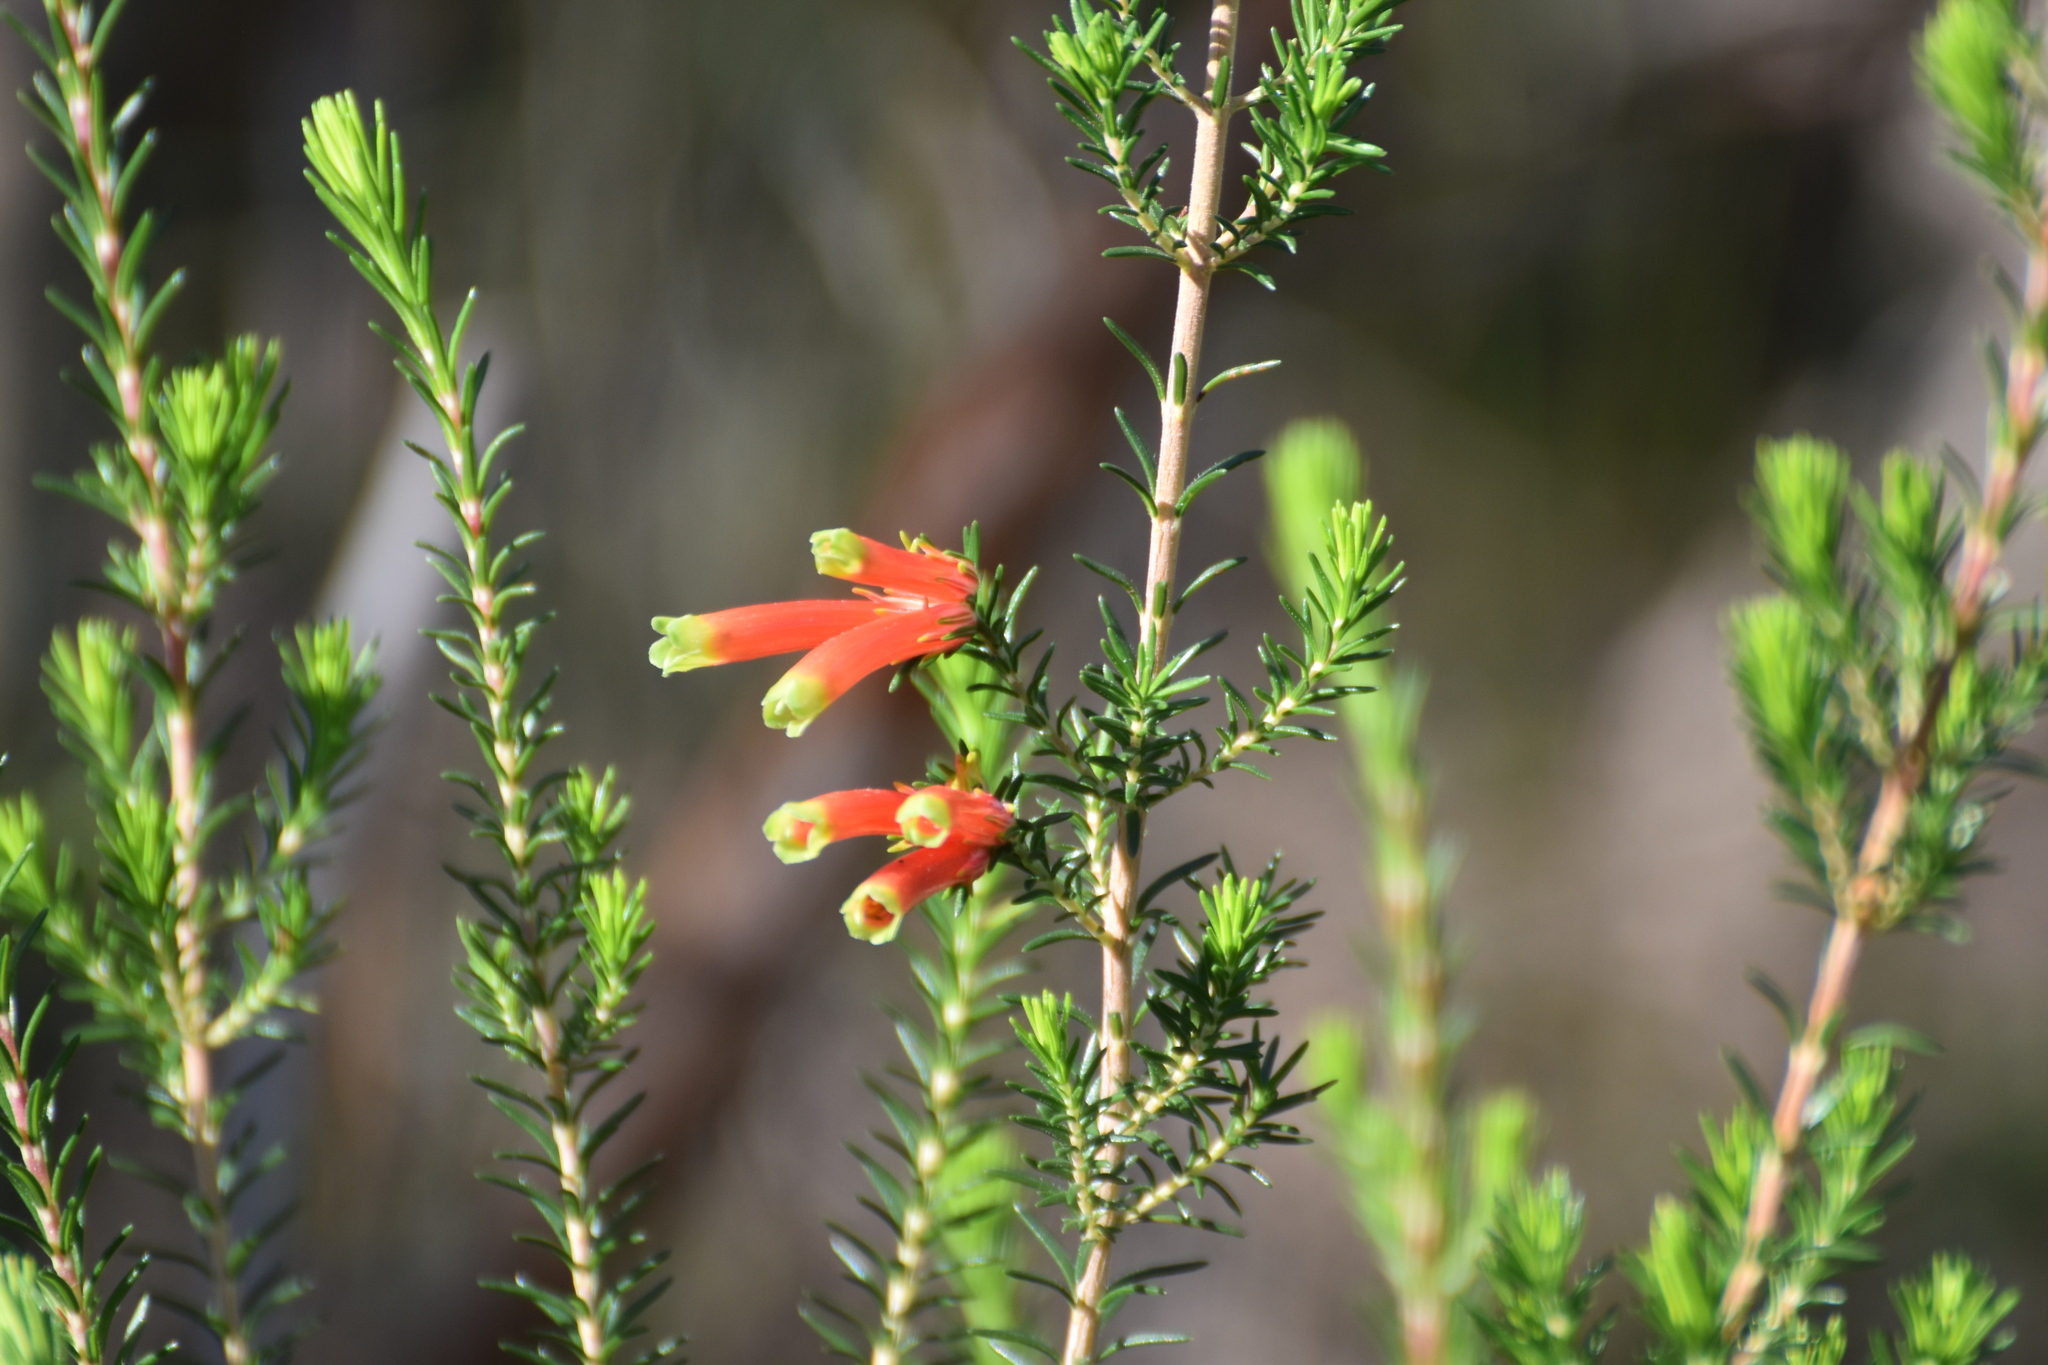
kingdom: Plantae
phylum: Tracheophyta
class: Magnoliopsida
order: Ericales
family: Ericaceae
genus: Erica
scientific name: Erica unicolor
